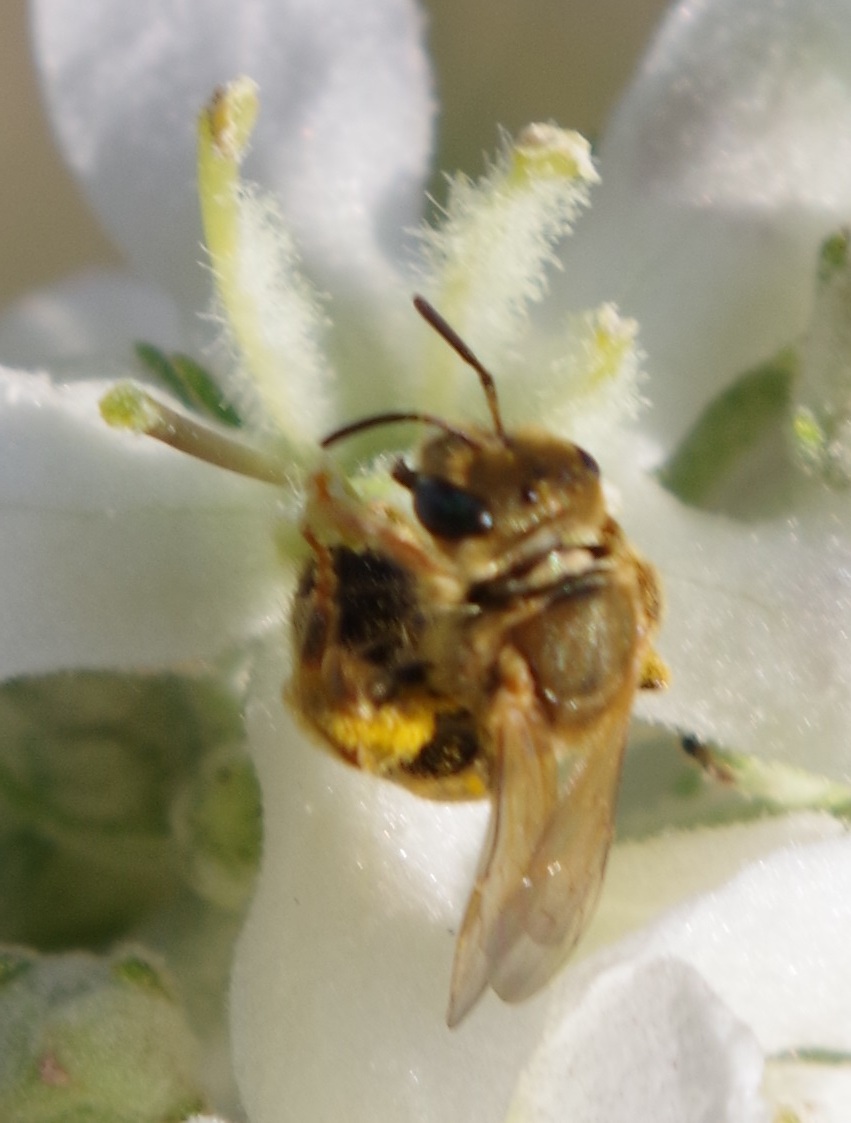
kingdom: Animalia
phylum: Arthropoda
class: Insecta
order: Hymenoptera
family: Halictidae
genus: Halictus
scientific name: Halictus subauratus
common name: Golden furrow bee
